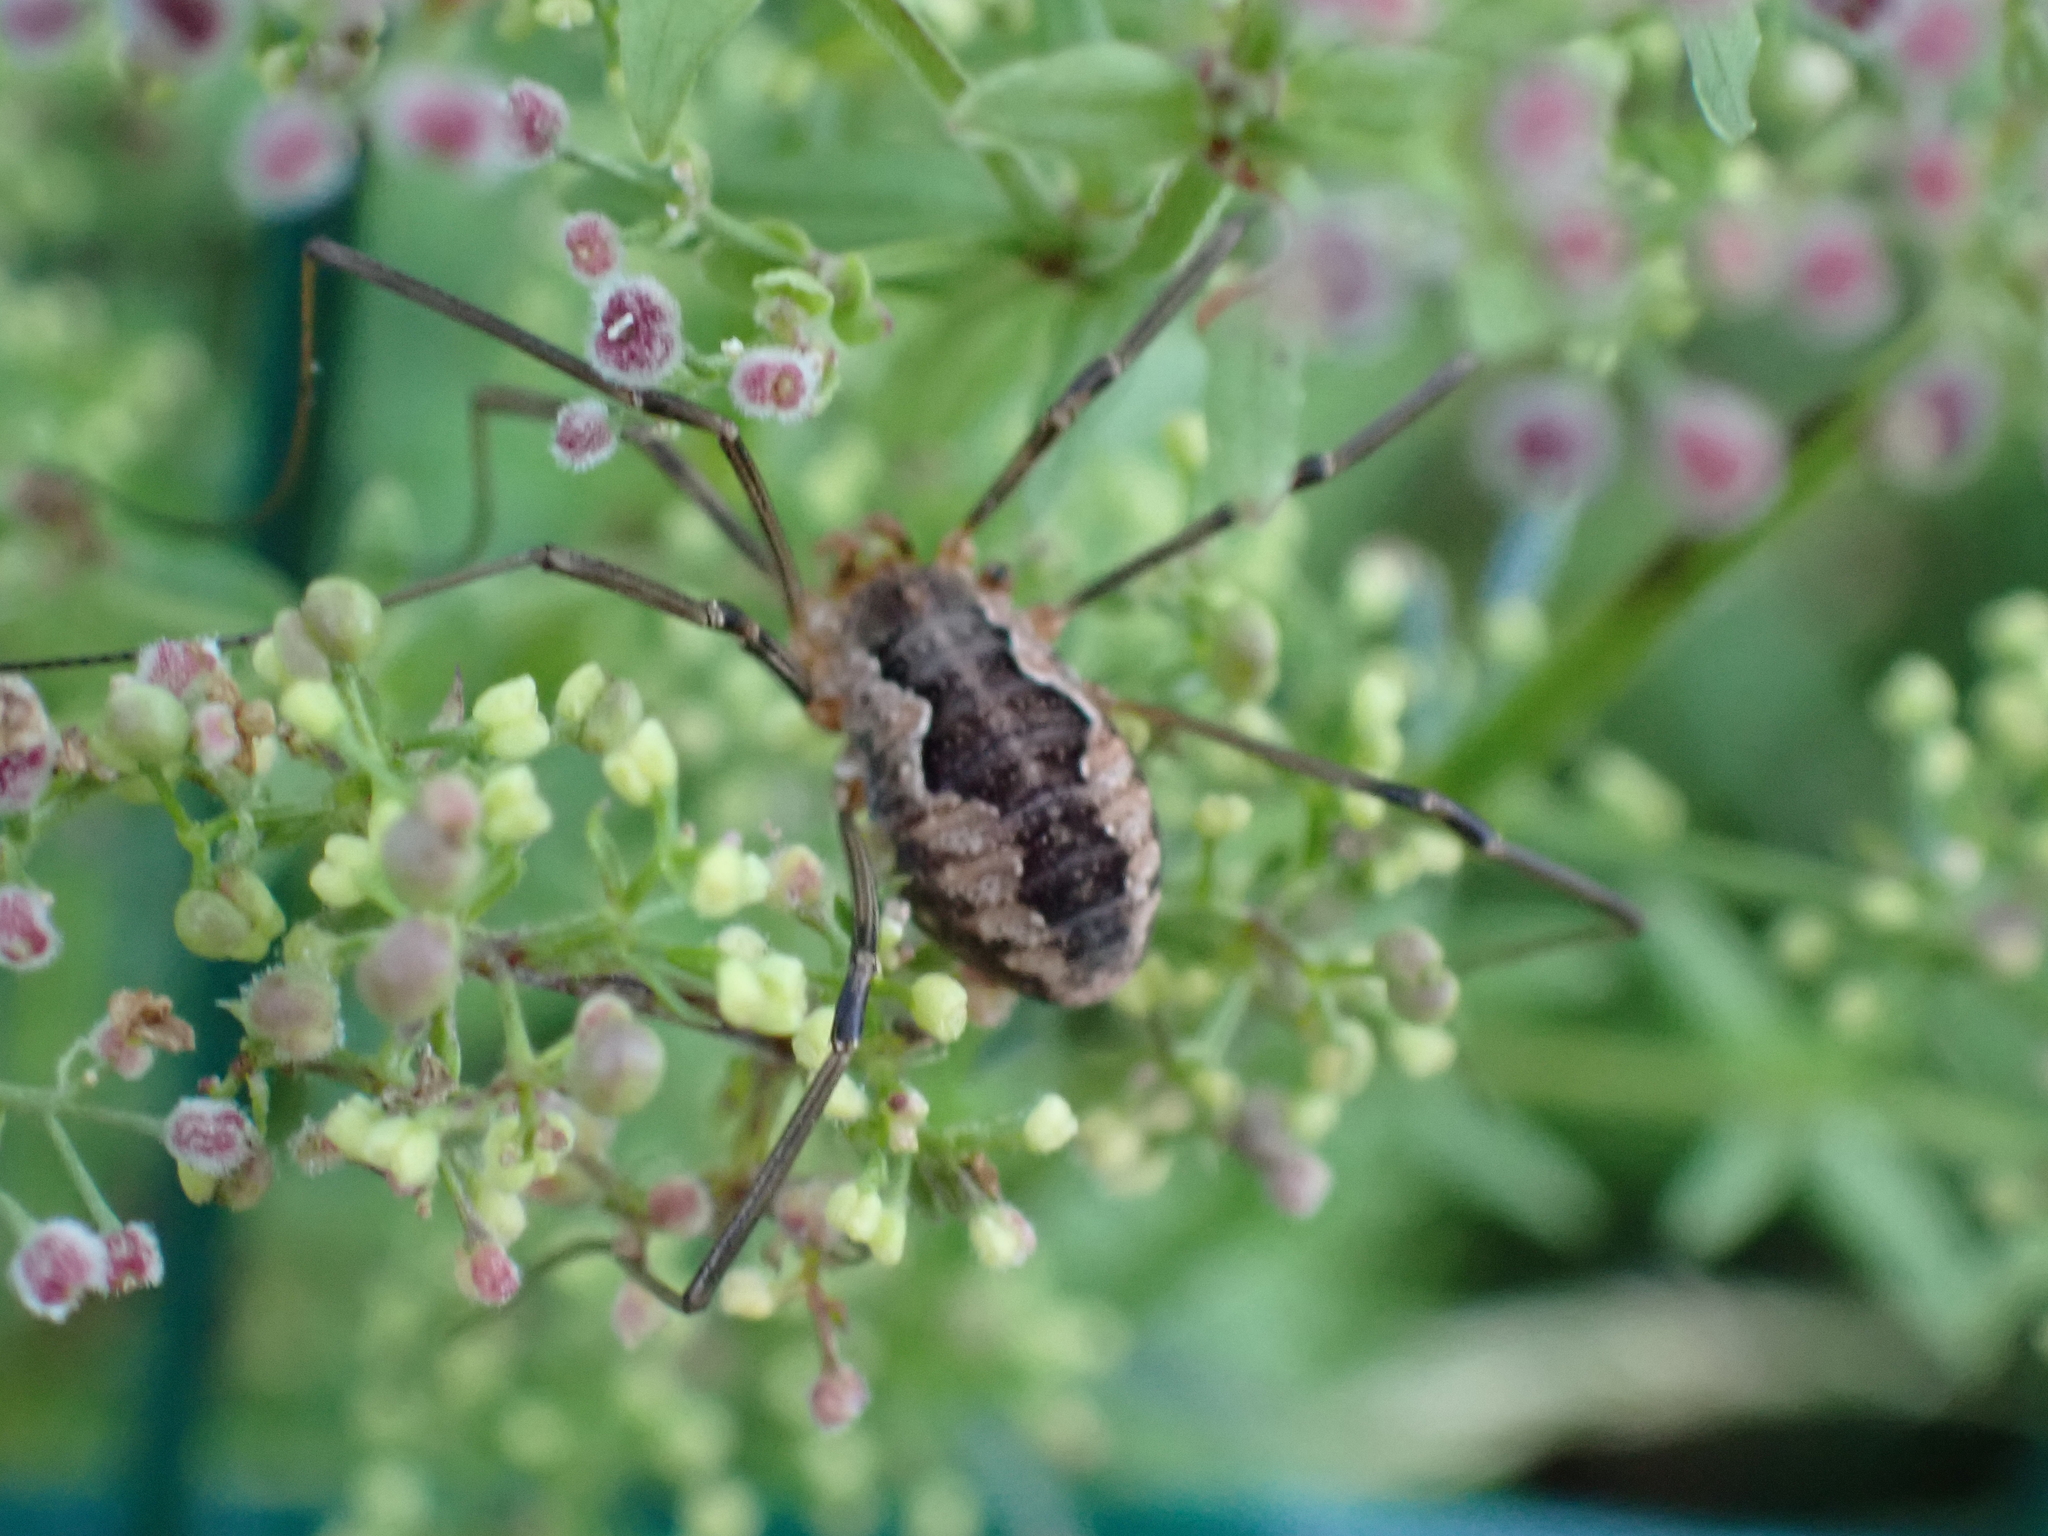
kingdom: Animalia
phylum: Arthropoda
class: Arachnida
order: Opiliones
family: Phalangiidae
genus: Phalangium
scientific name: Phalangium opilio
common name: Daddy longleg
